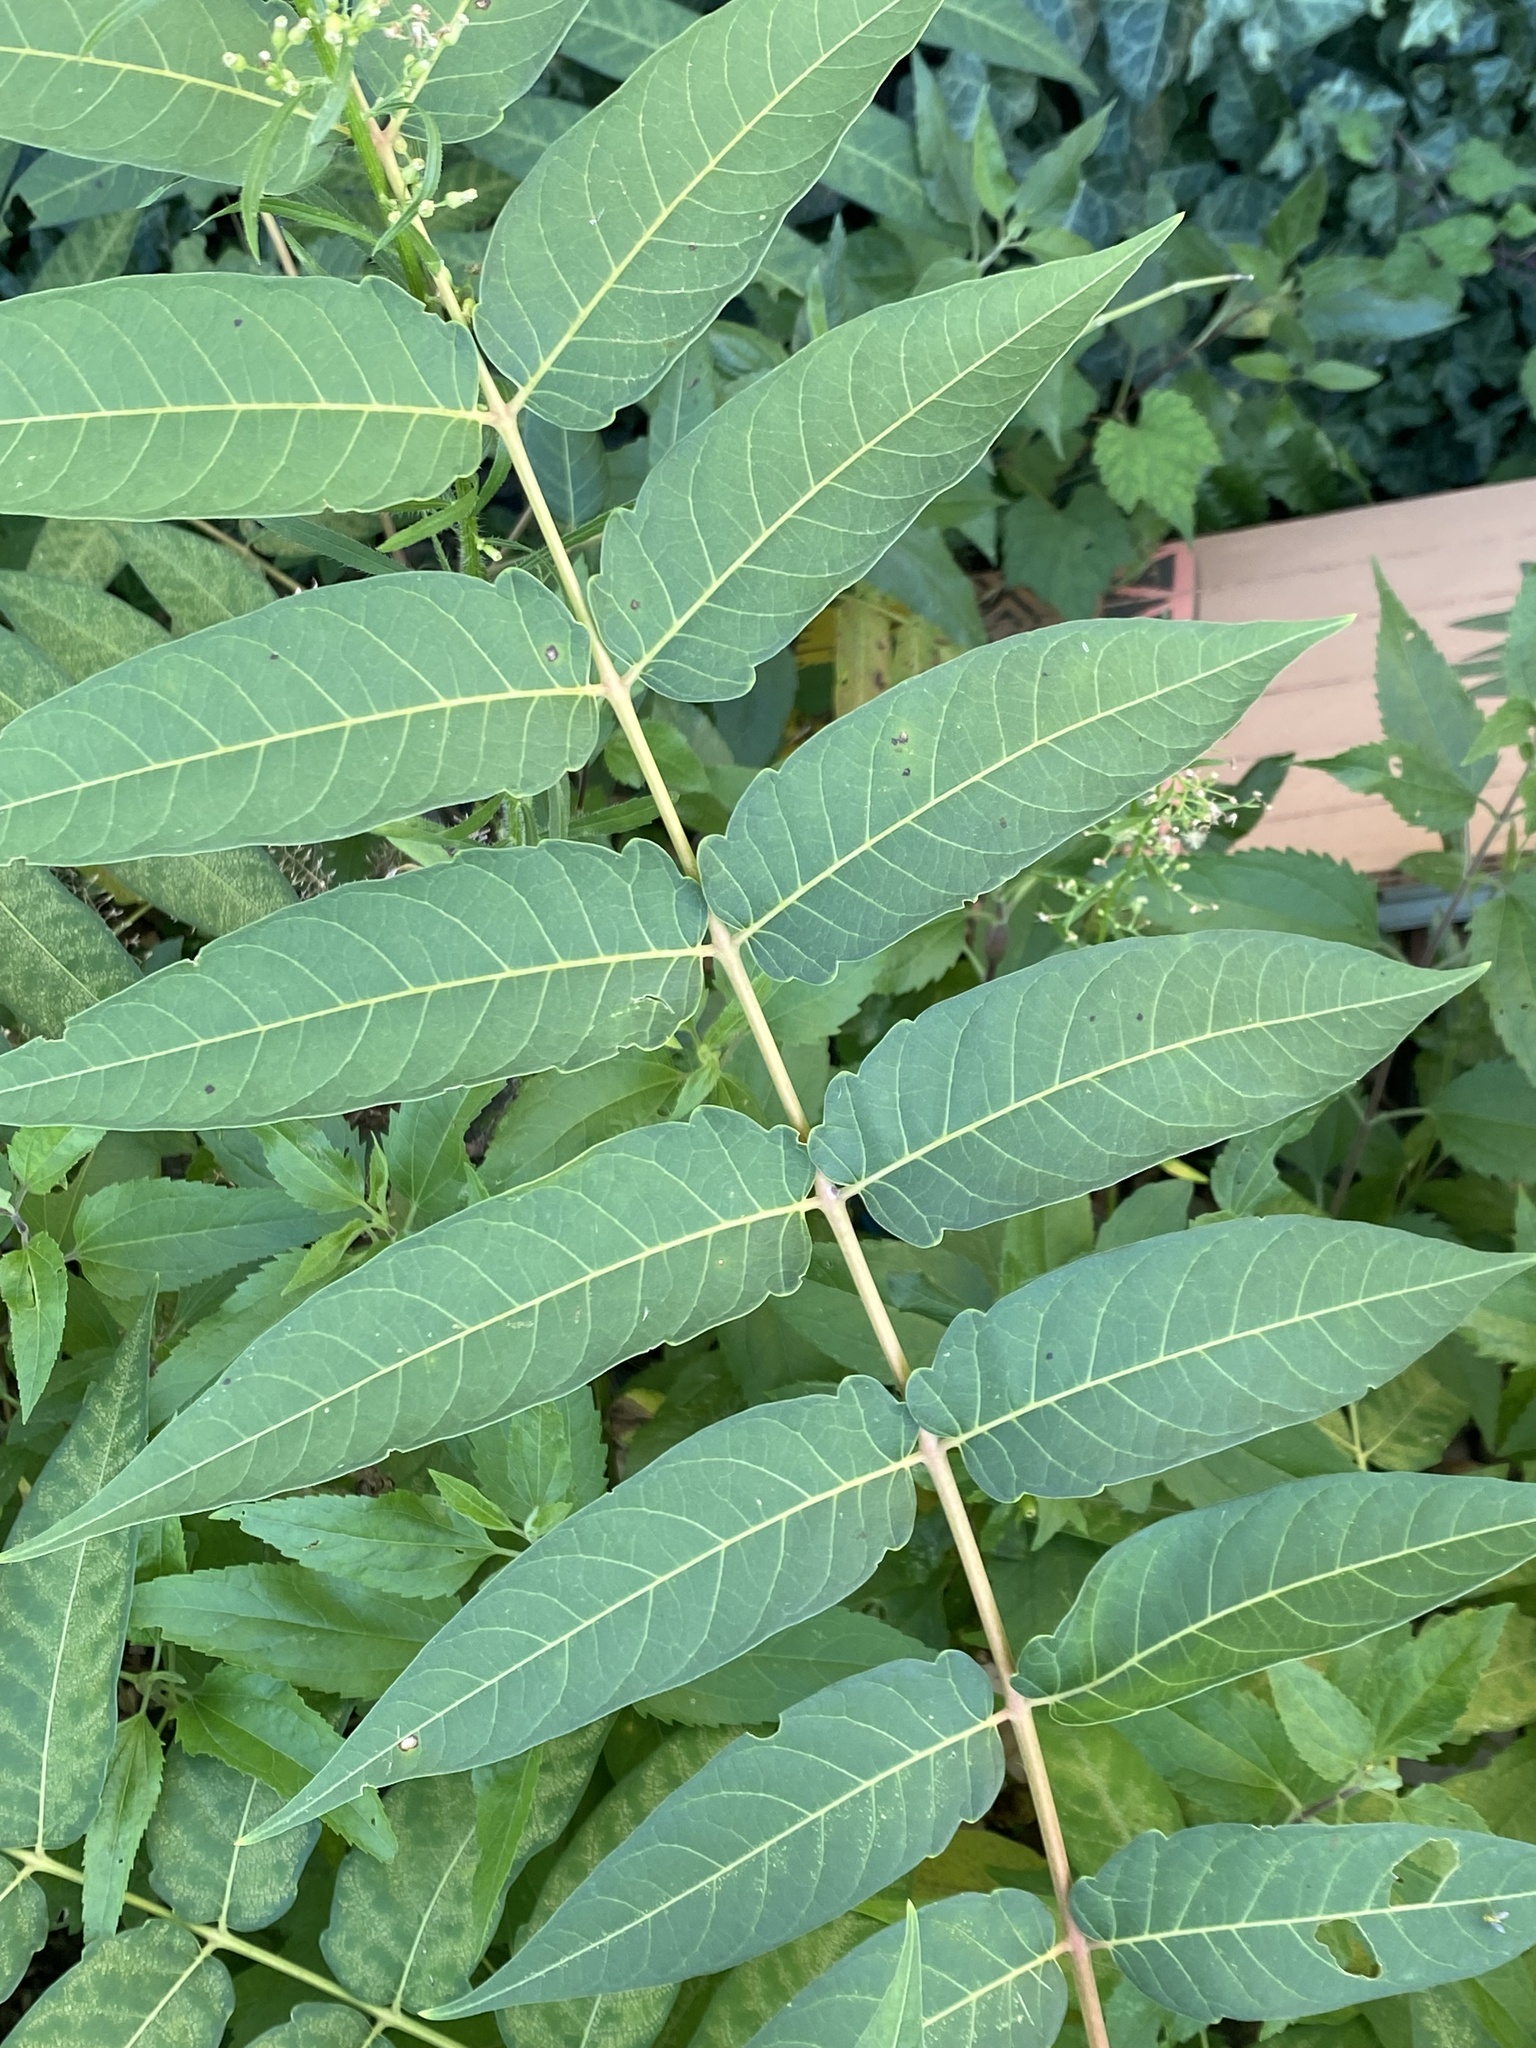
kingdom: Plantae
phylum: Tracheophyta
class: Magnoliopsida
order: Sapindales
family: Simaroubaceae
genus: Ailanthus
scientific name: Ailanthus altissima
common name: Tree-of-heaven
